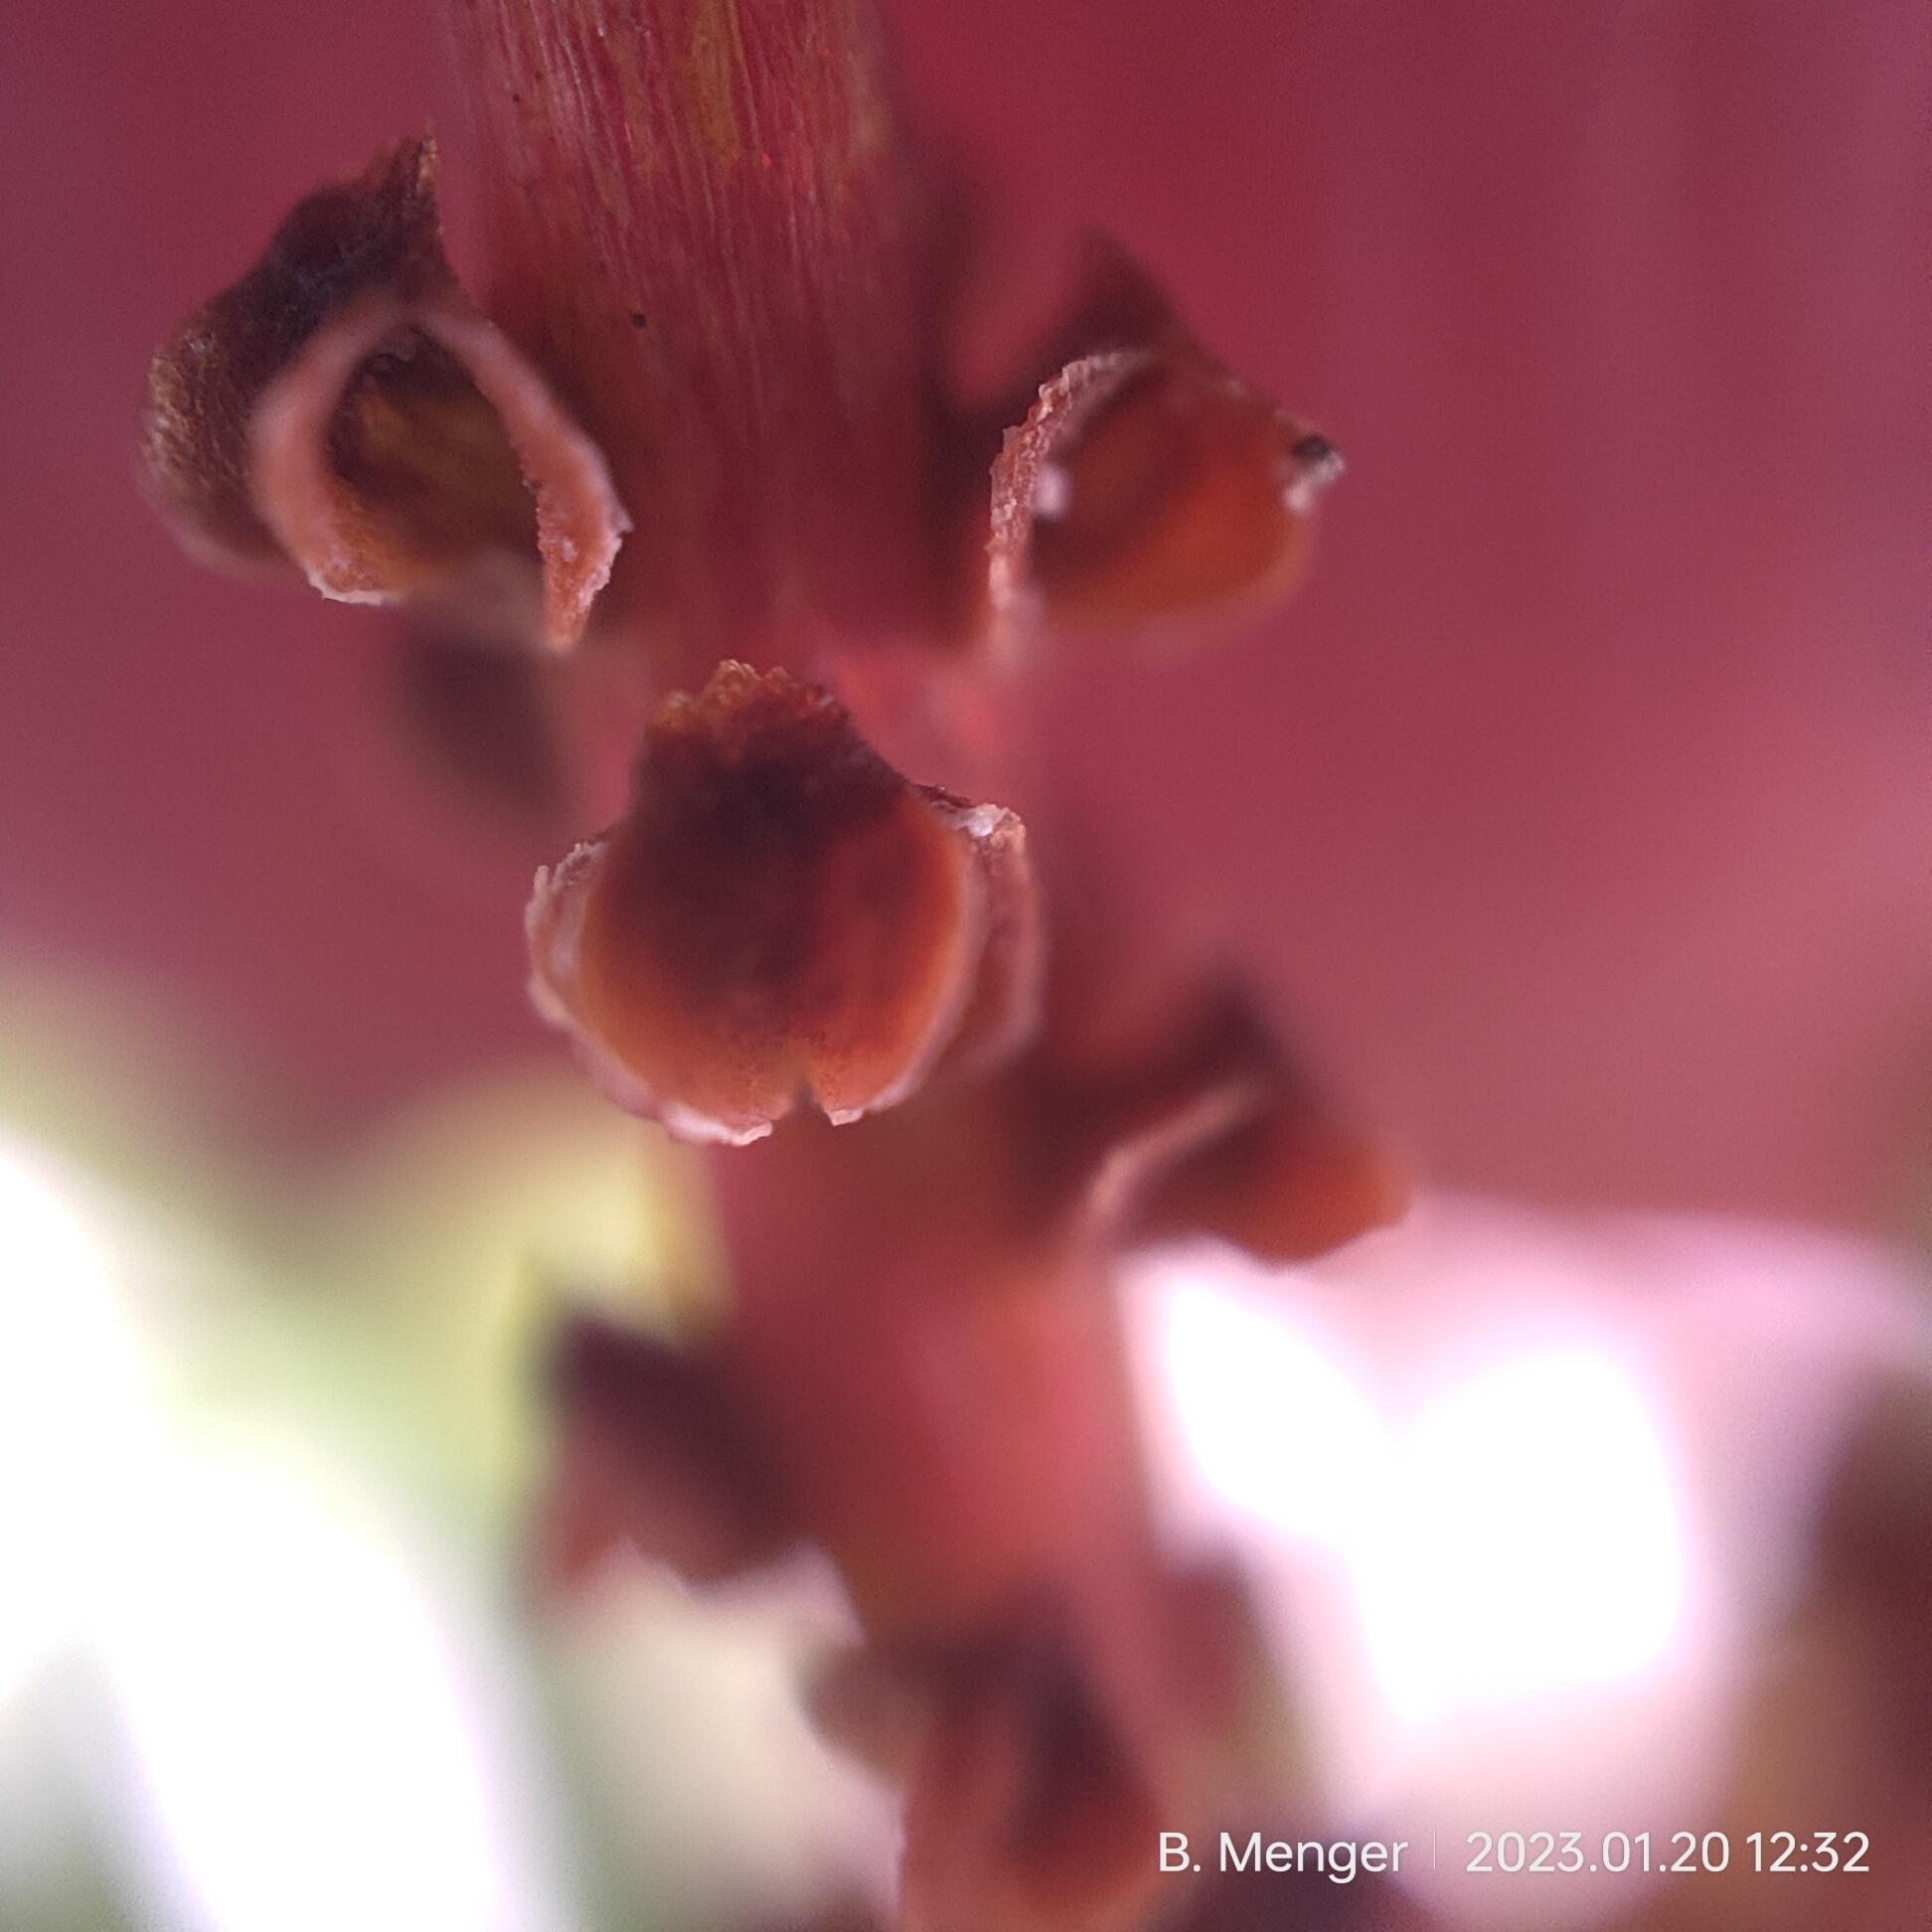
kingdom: Plantae
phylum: Tracheophyta
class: Pinopsida
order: Pinales
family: Podocarpaceae
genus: Podocarpus
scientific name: Podocarpus nivalis
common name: Alpine totara
